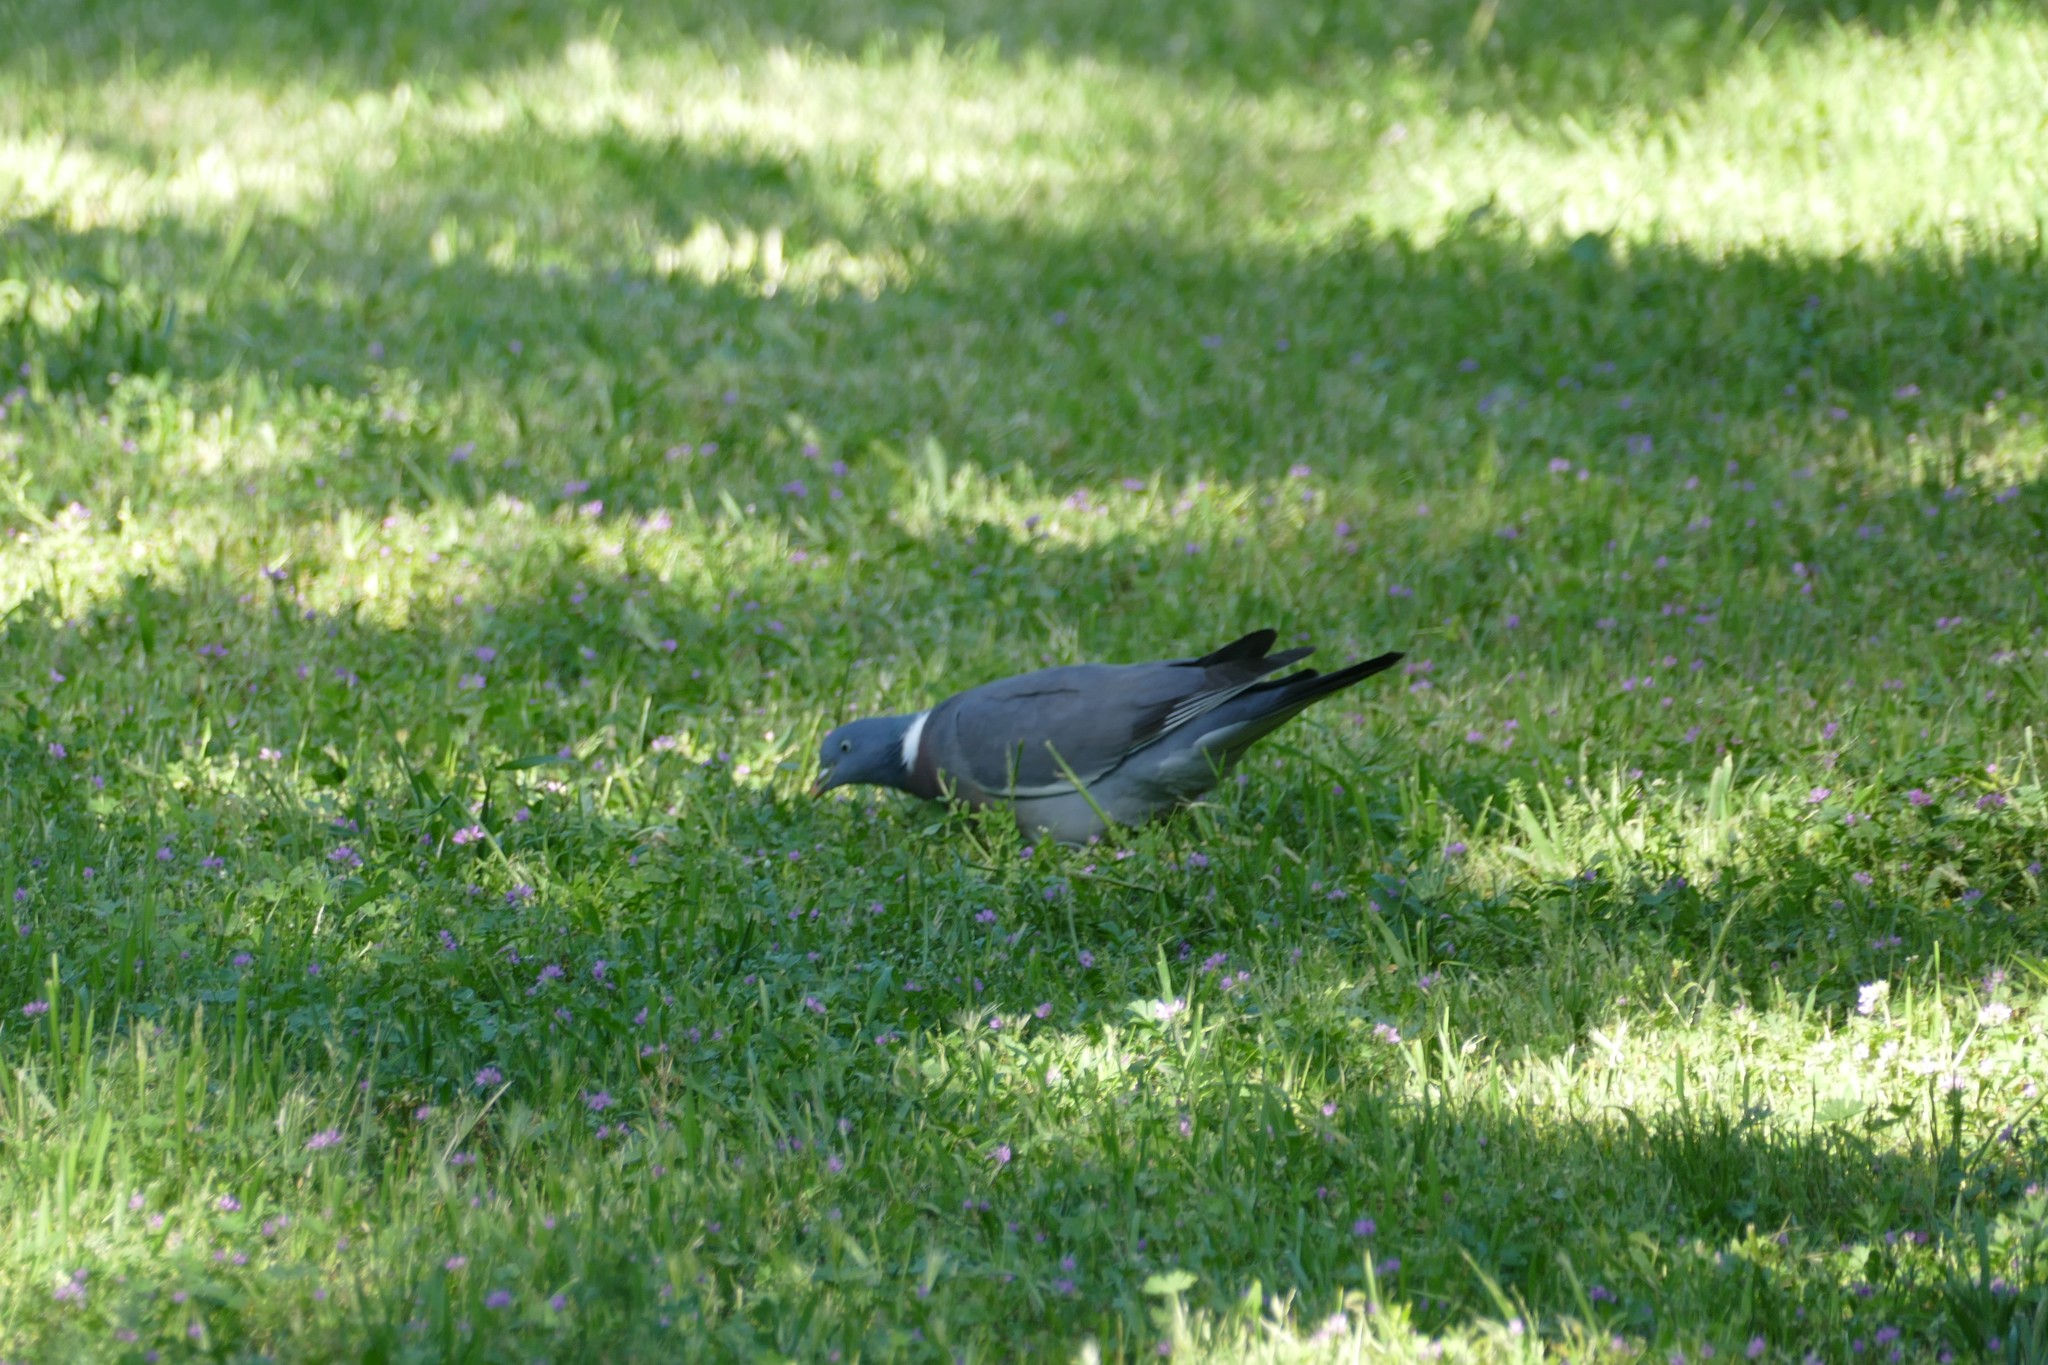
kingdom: Animalia
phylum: Chordata
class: Aves
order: Columbiformes
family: Columbidae
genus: Columba
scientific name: Columba palumbus
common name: Common wood pigeon
